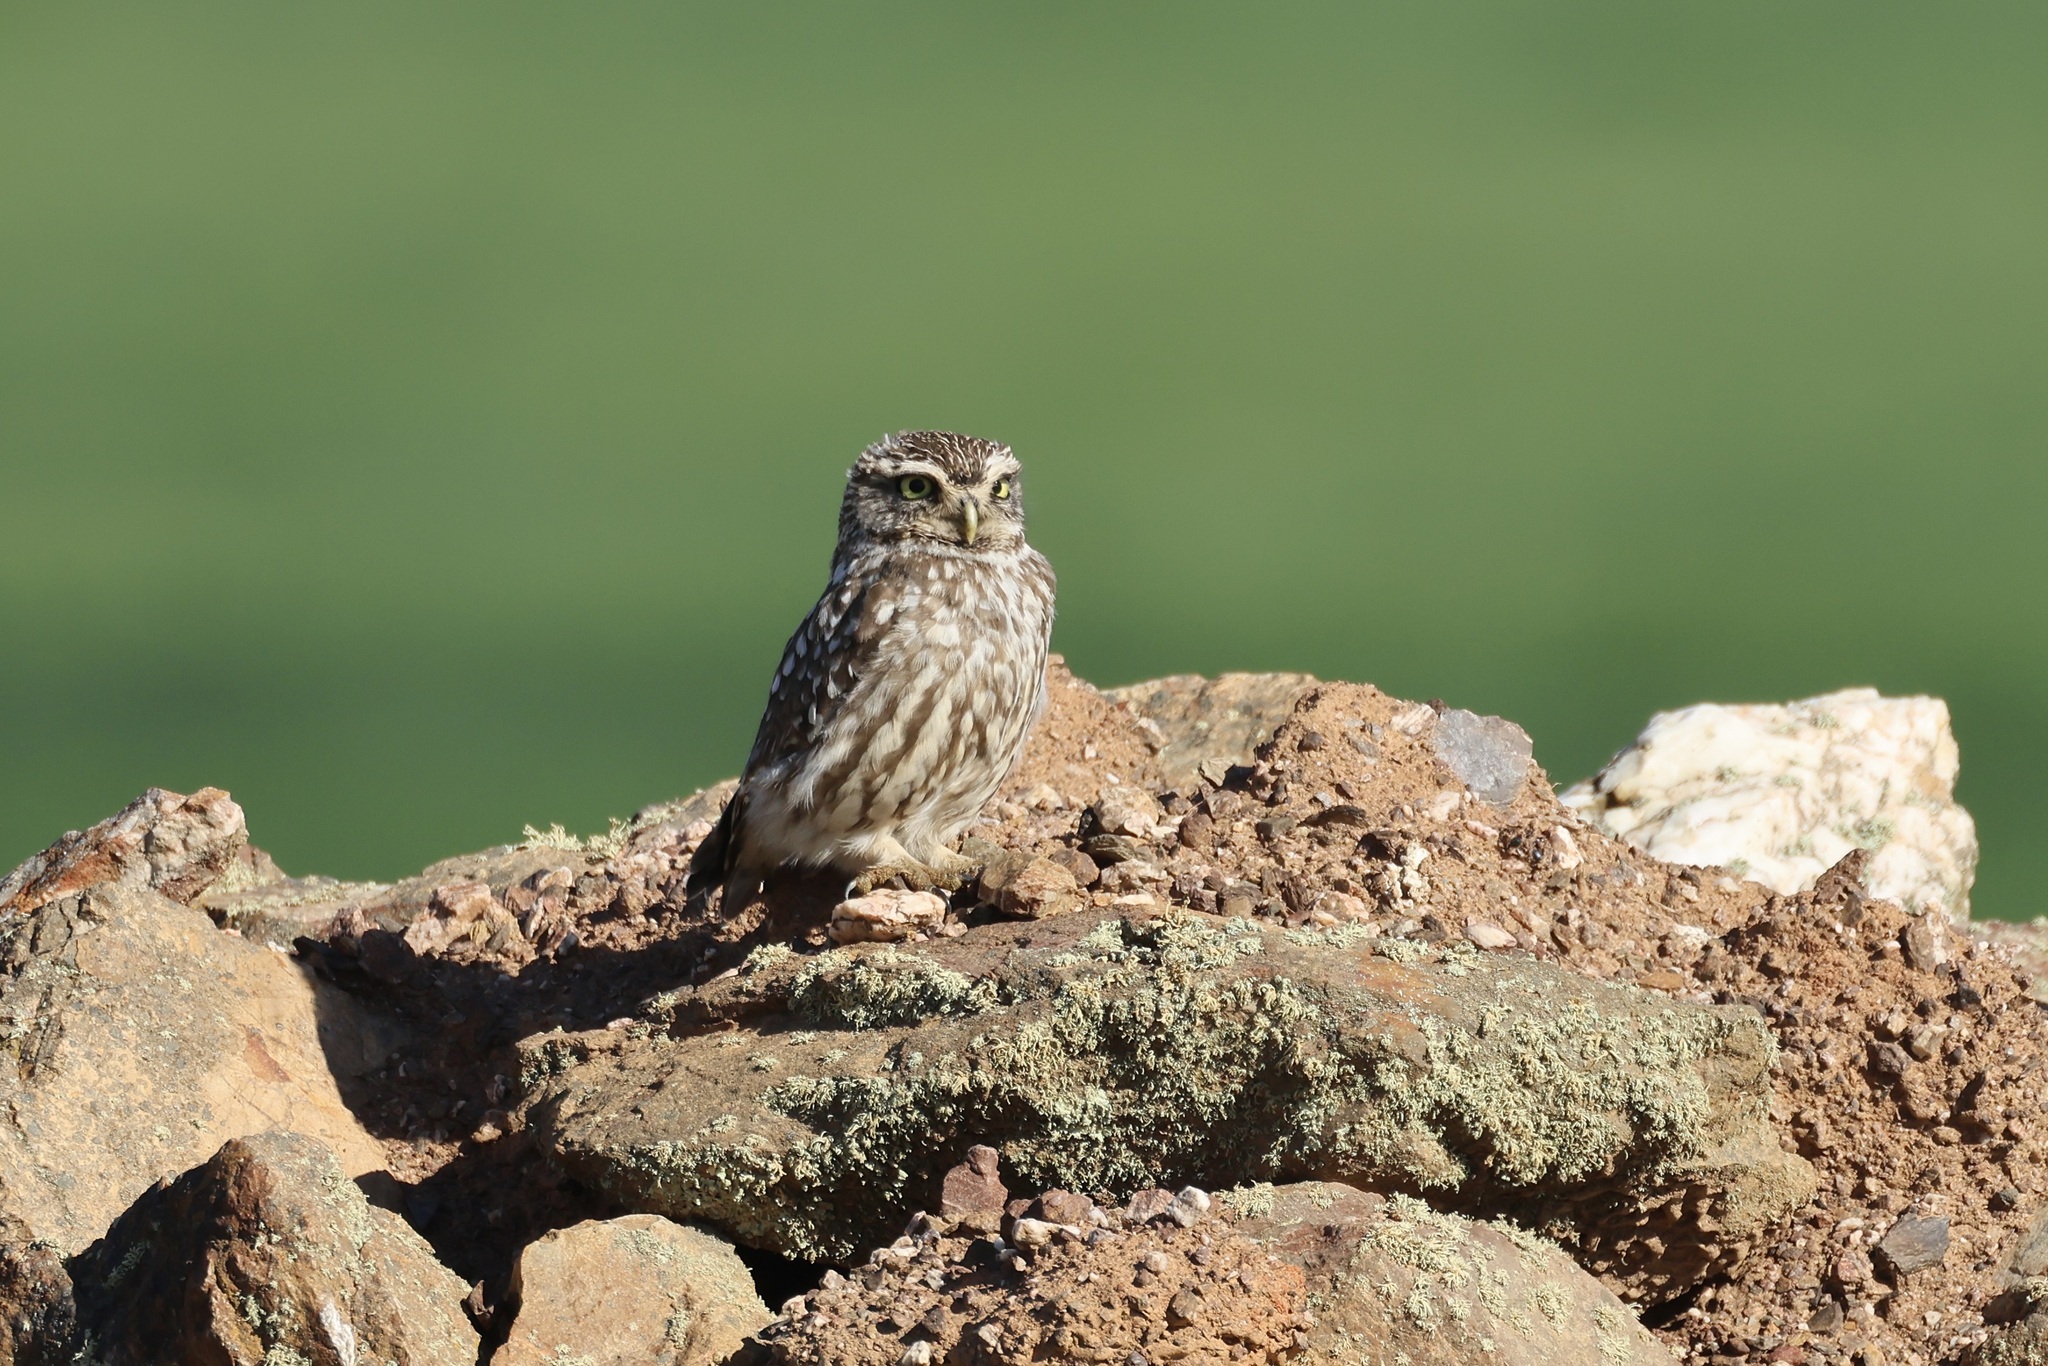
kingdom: Animalia
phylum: Chordata
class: Aves
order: Strigiformes
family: Strigidae
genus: Athene
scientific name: Athene noctua
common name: Little owl
